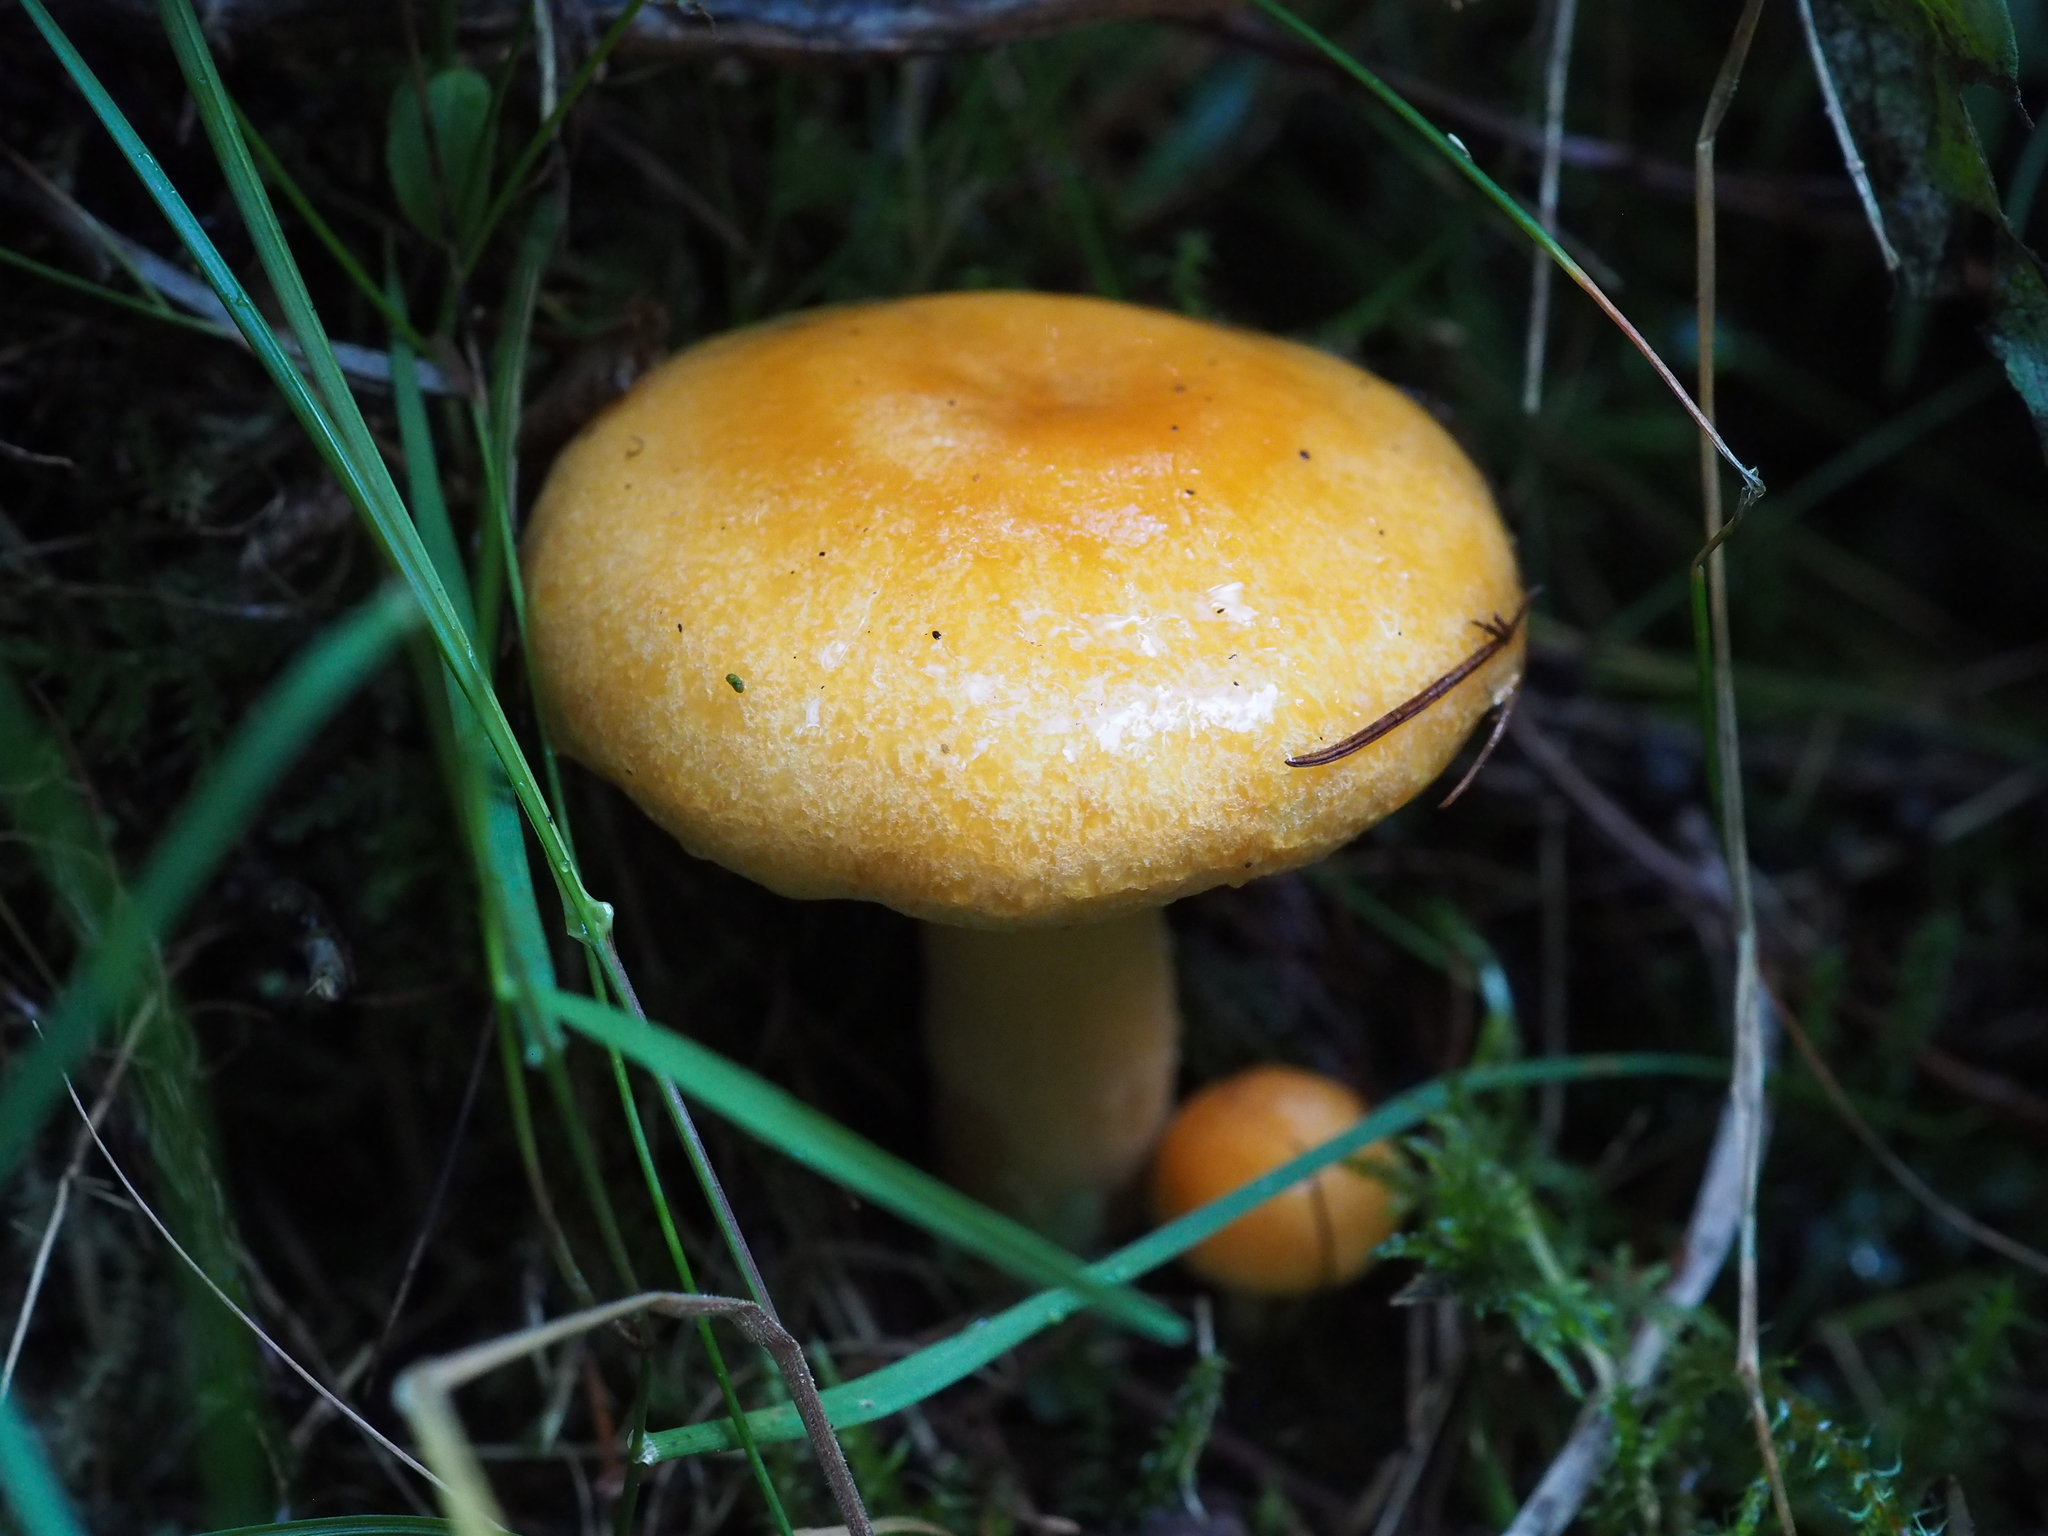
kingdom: Fungi
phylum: Basidiomycota
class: Agaricomycetes
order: Russulales
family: Russulaceae
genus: Lactarius
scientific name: Lactarius porniniae
